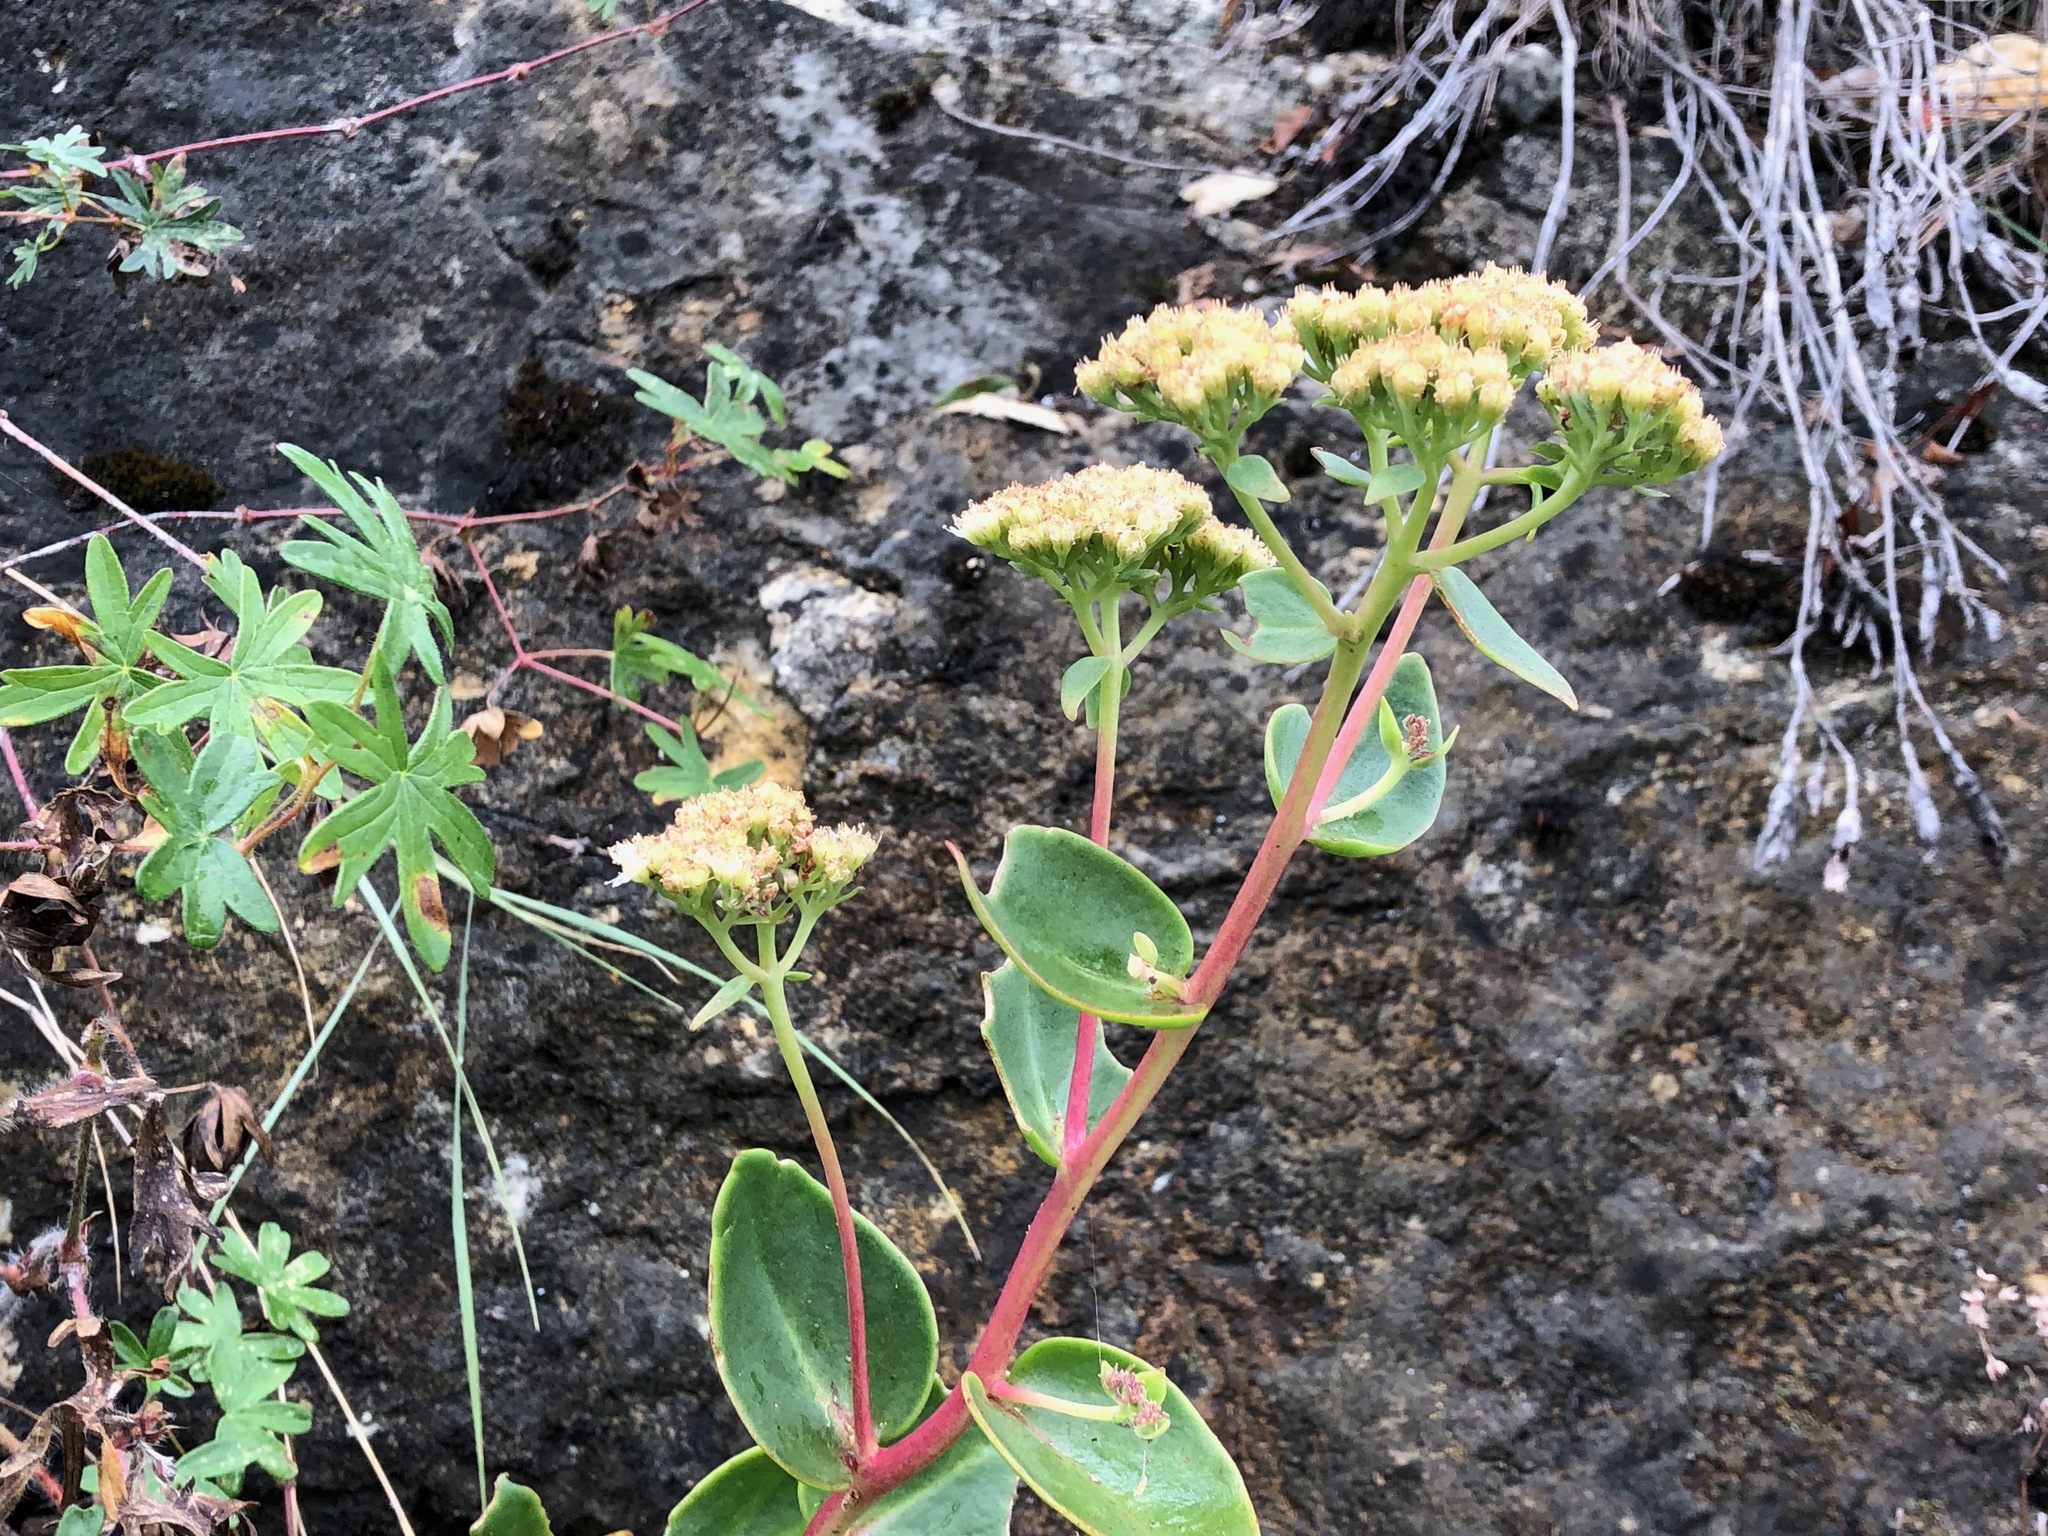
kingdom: Plantae
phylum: Tracheophyta
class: Magnoliopsida
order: Saxifragales
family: Crassulaceae
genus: Hylotelephium
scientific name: Hylotelephium maximum
